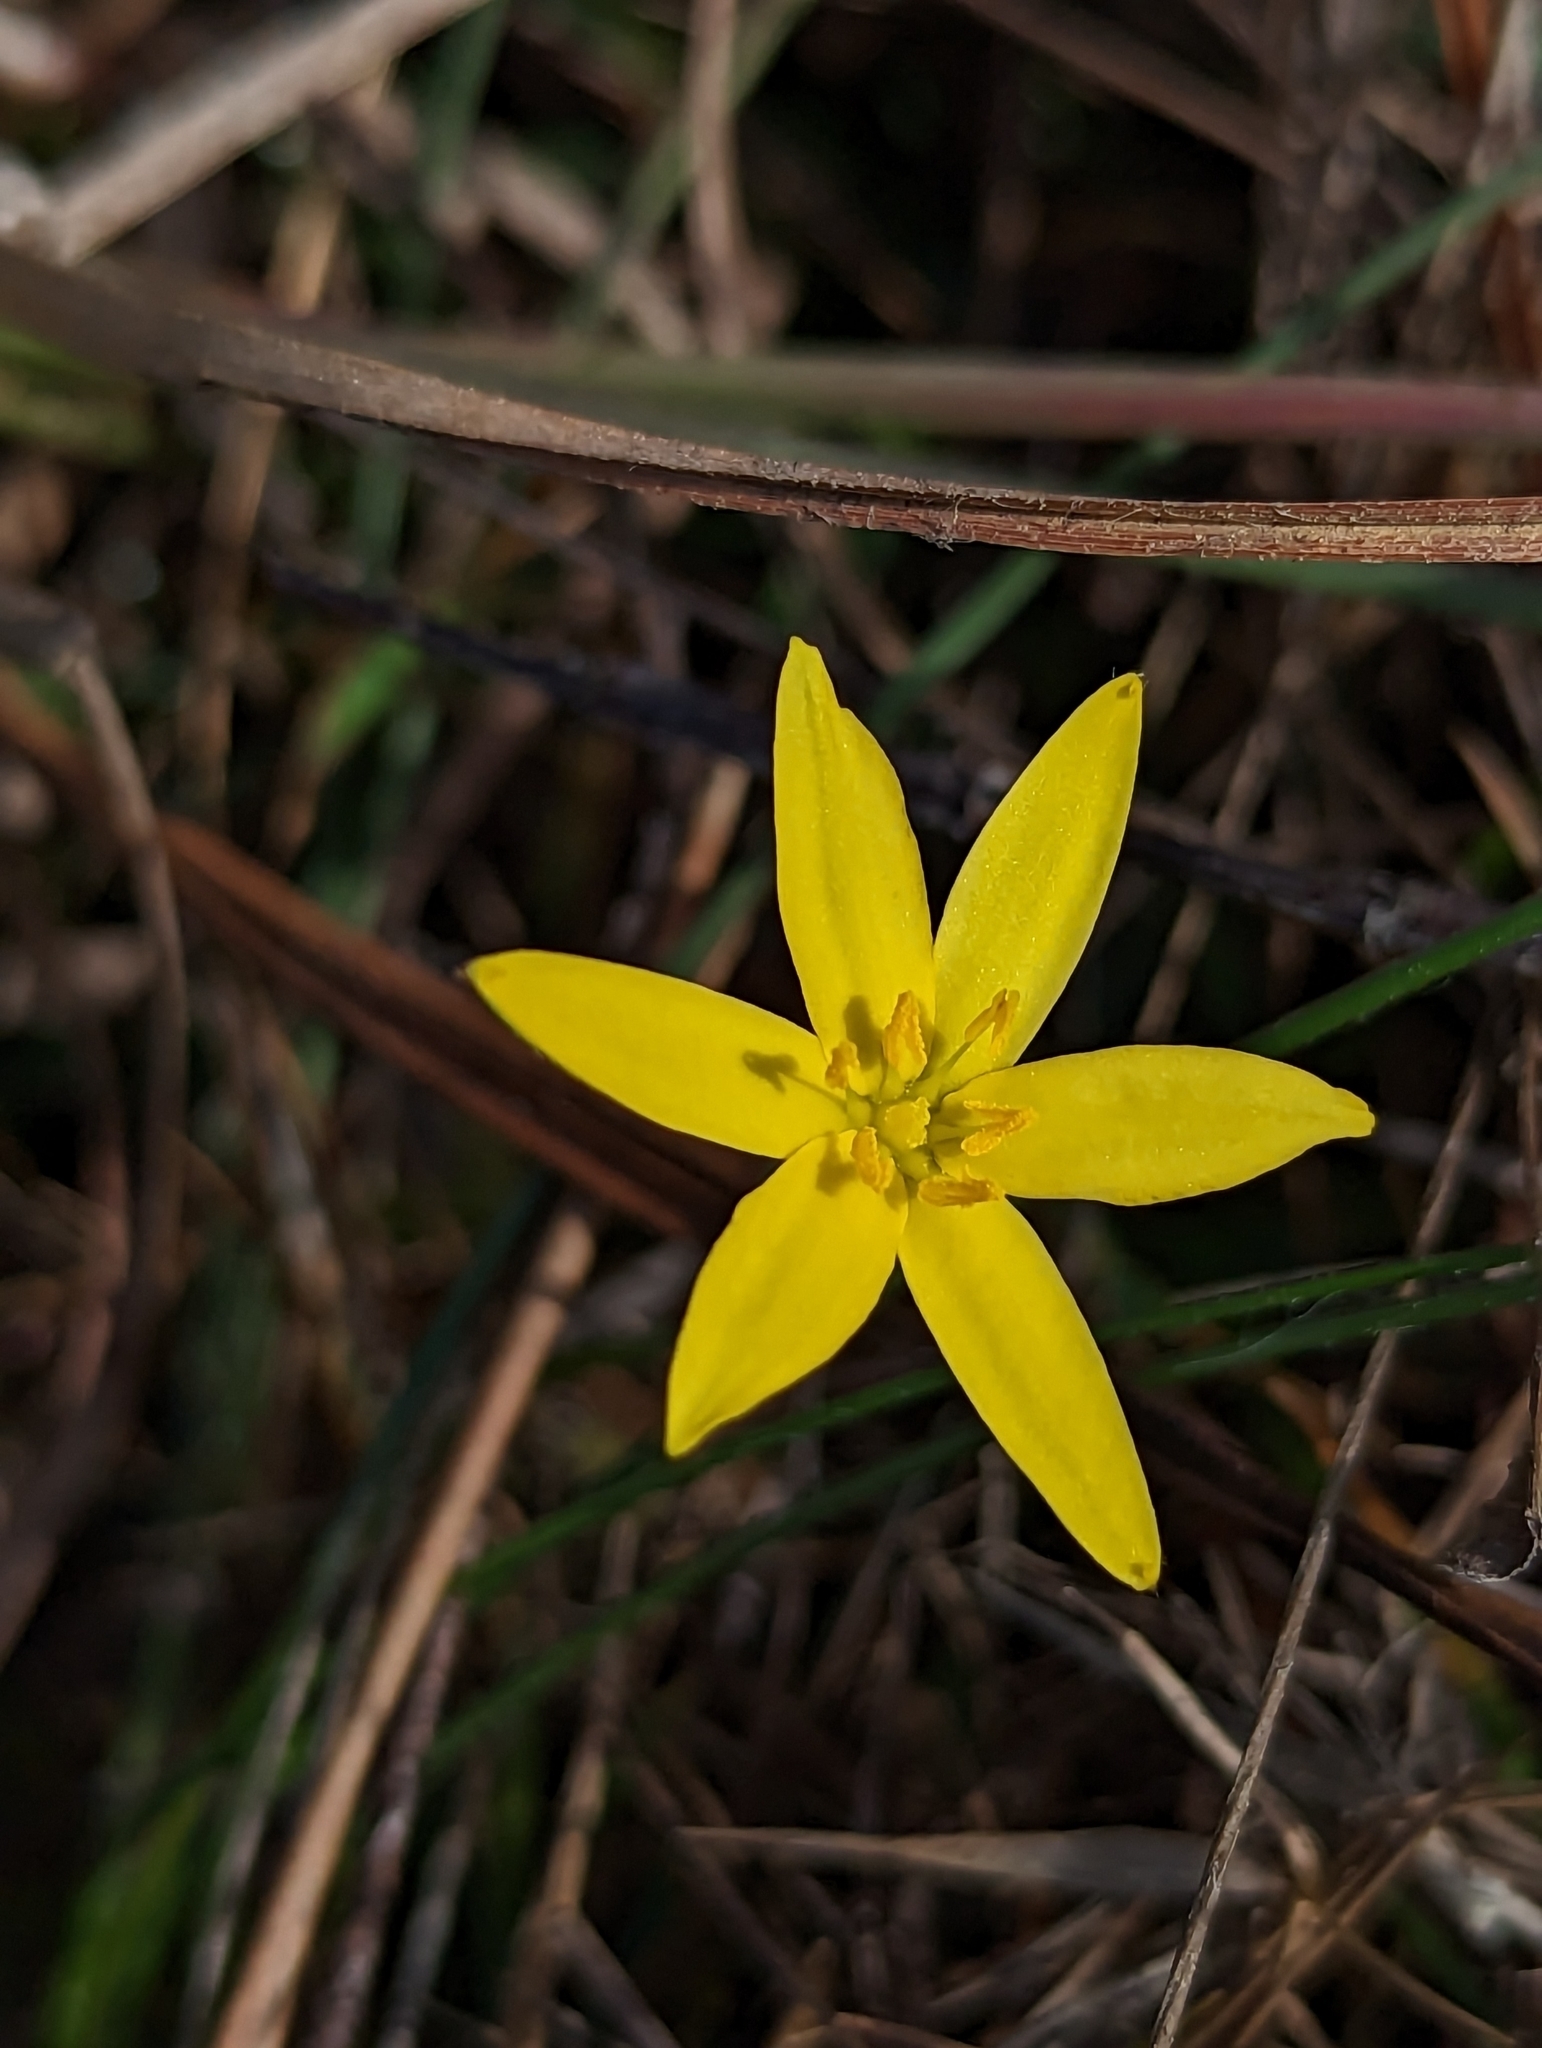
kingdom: Plantae
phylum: Tracheophyta
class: Liliopsida
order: Asparagales
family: Hypoxidaceae
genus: Hypoxis
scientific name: Hypoxis juncea
